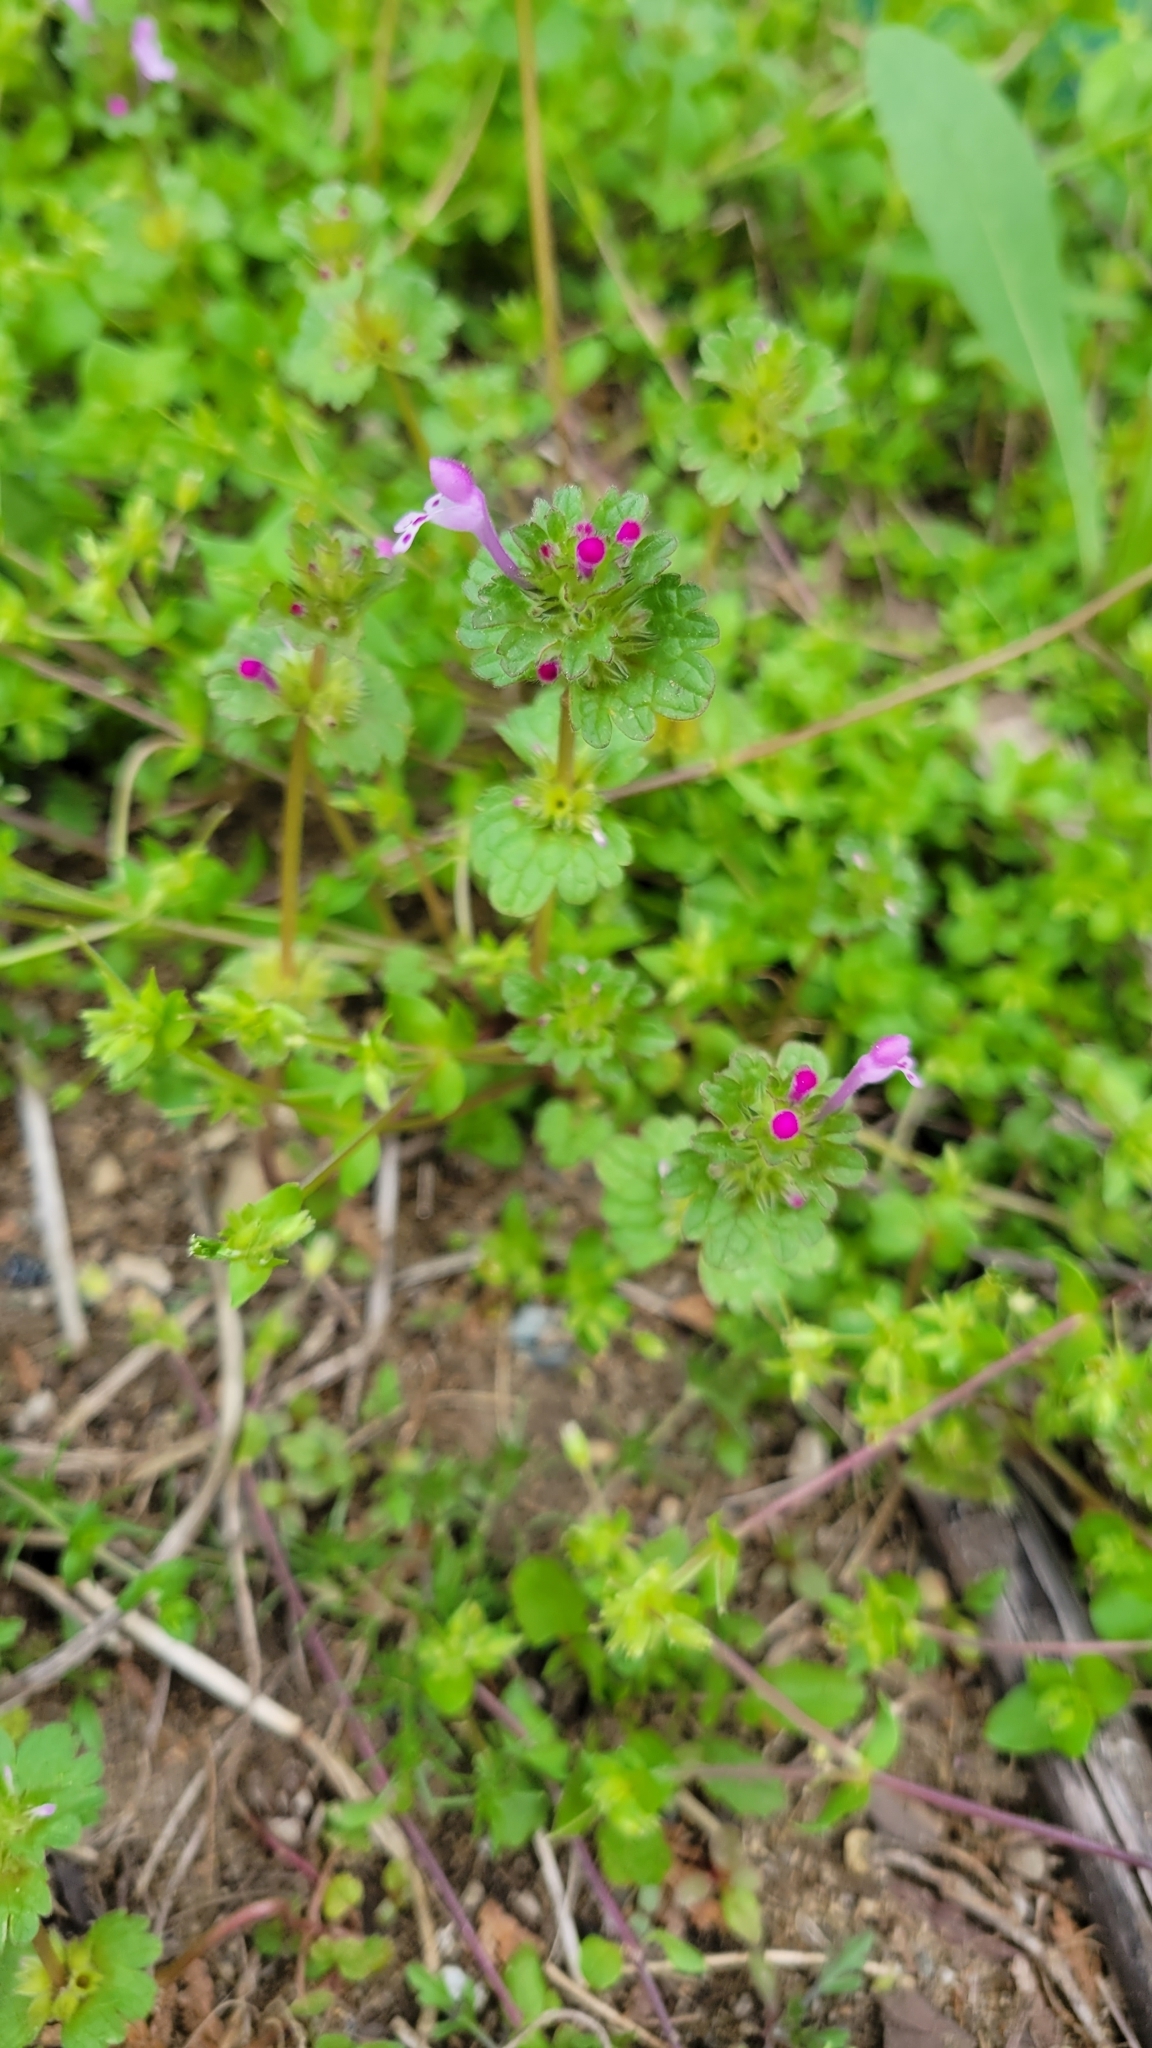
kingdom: Plantae
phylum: Tracheophyta
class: Magnoliopsida
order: Lamiales
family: Lamiaceae
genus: Lamium
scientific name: Lamium amplexicaule
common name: Henbit dead-nettle
